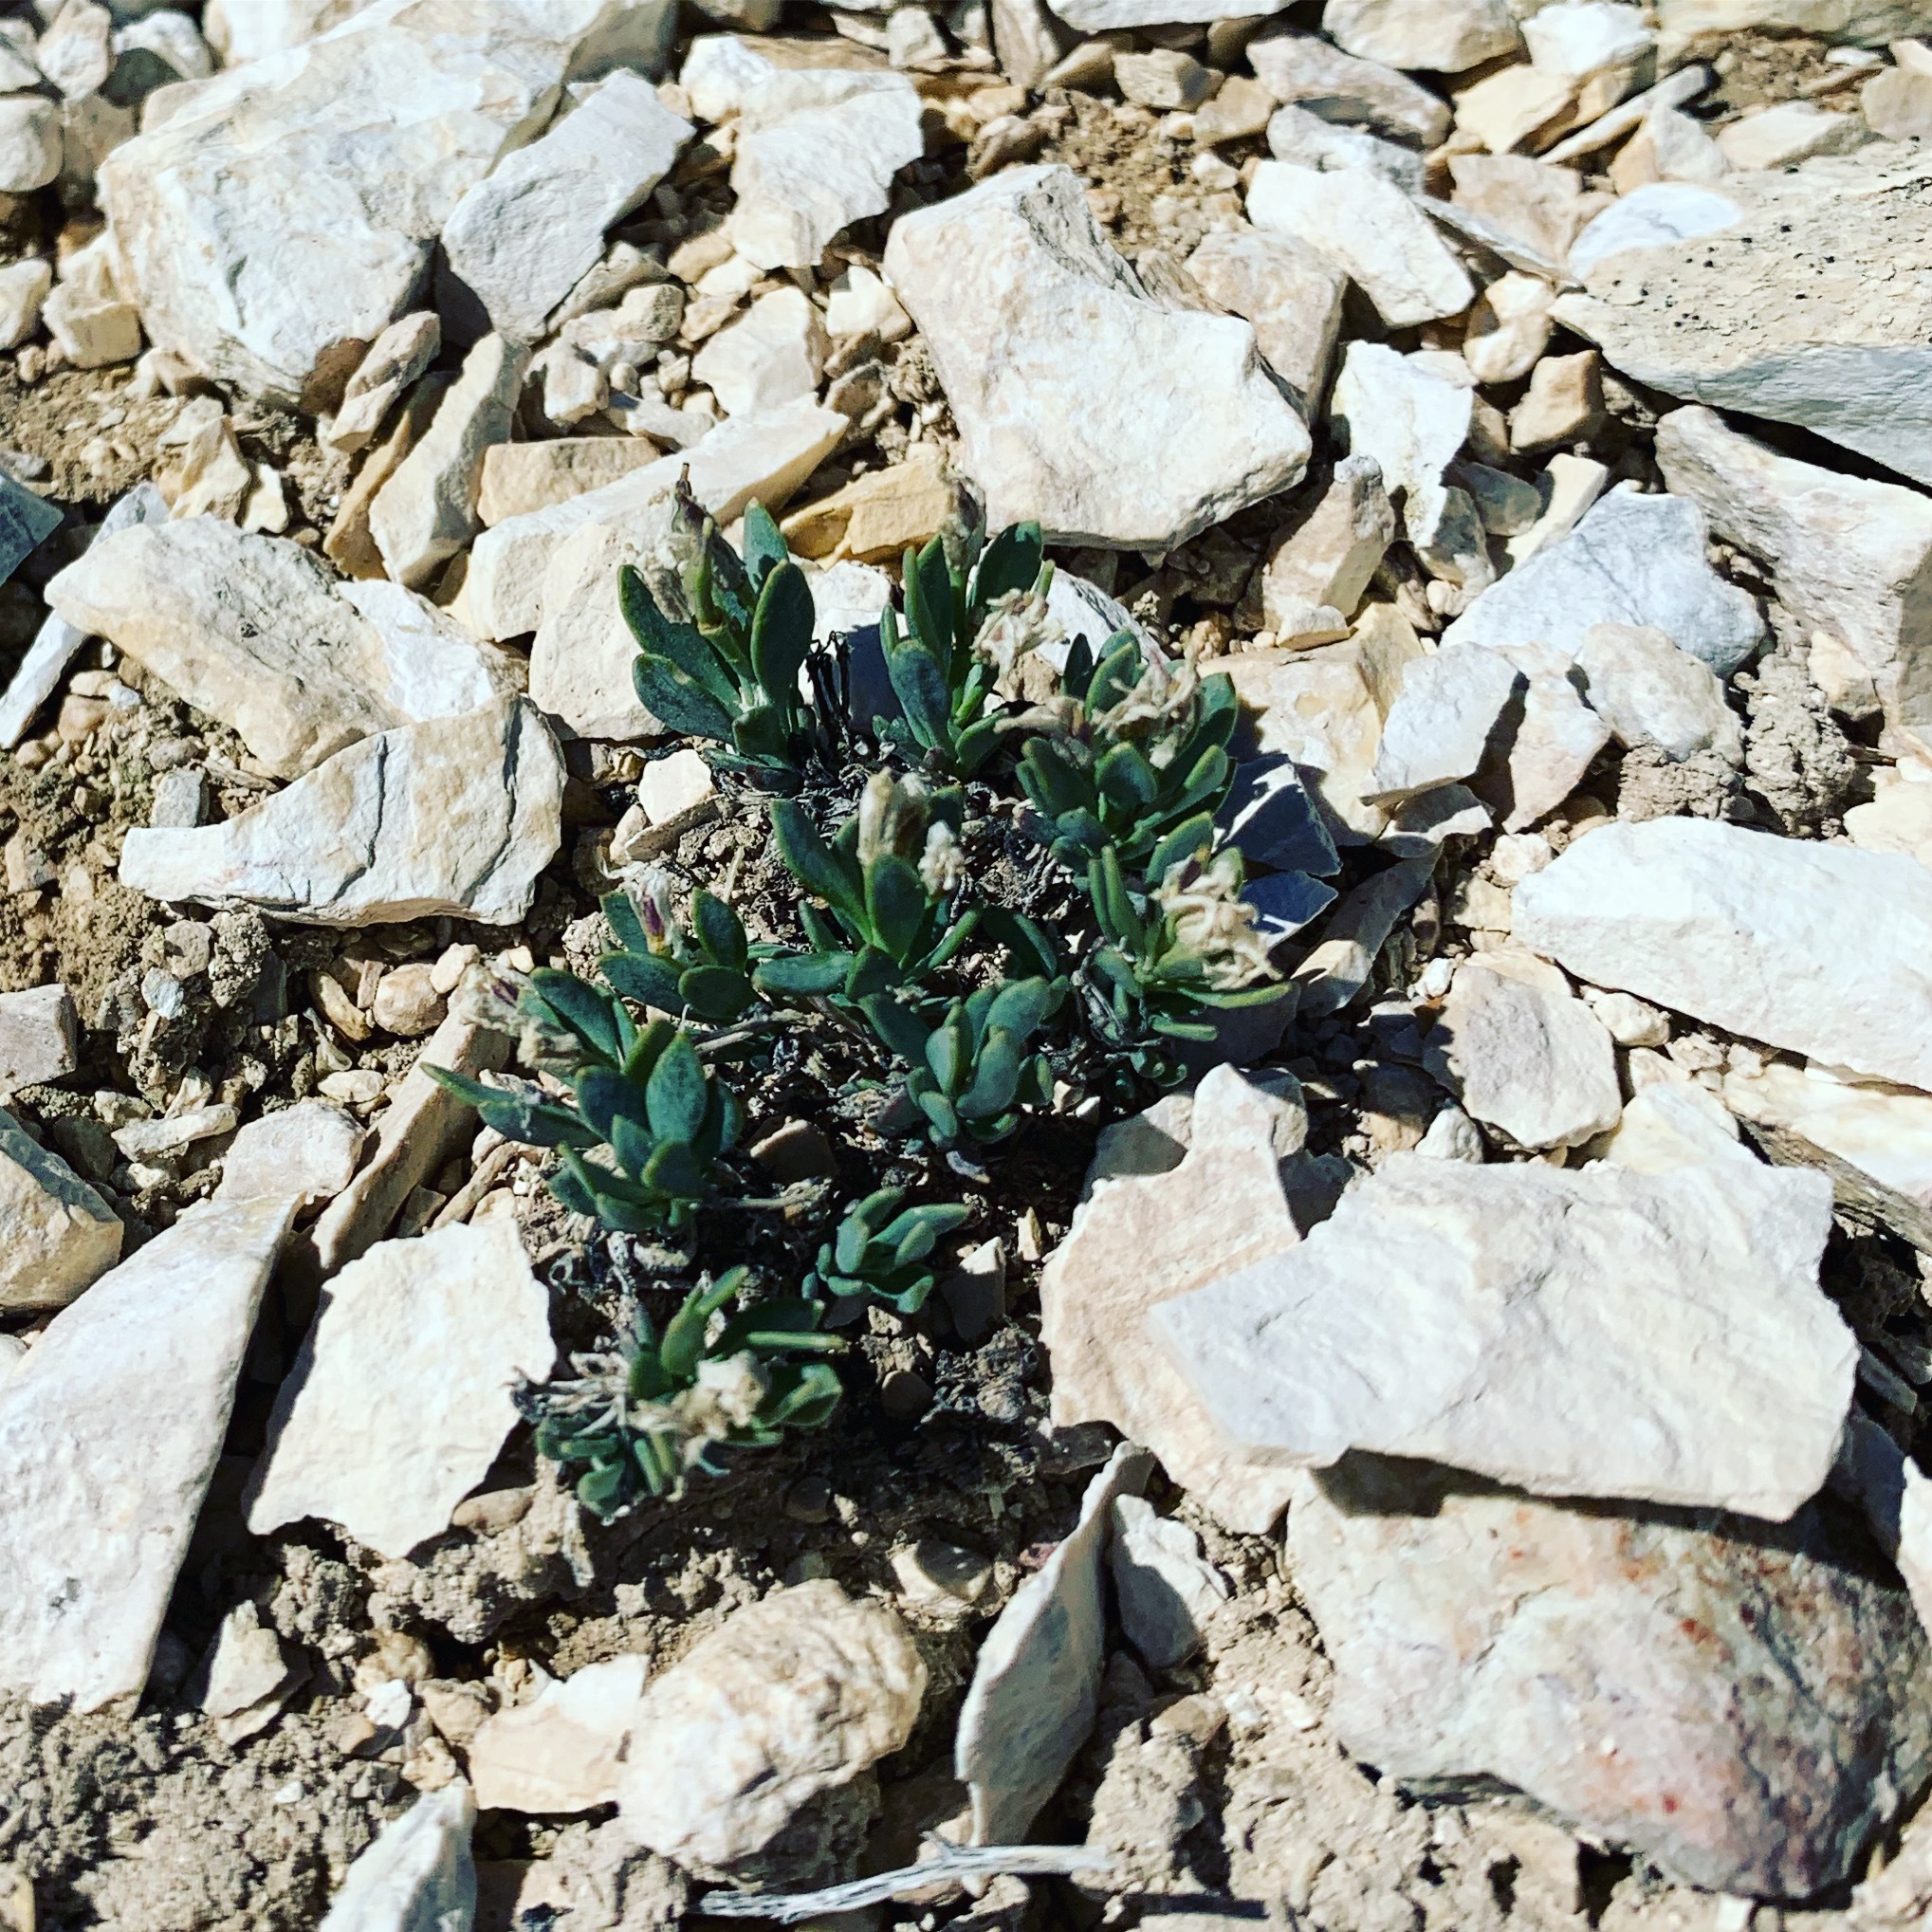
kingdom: Plantae
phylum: Tracheophyta
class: Magnoliopsida
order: Brassicales
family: Brassicaceae
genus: Terraria
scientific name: Terraria haydenii
